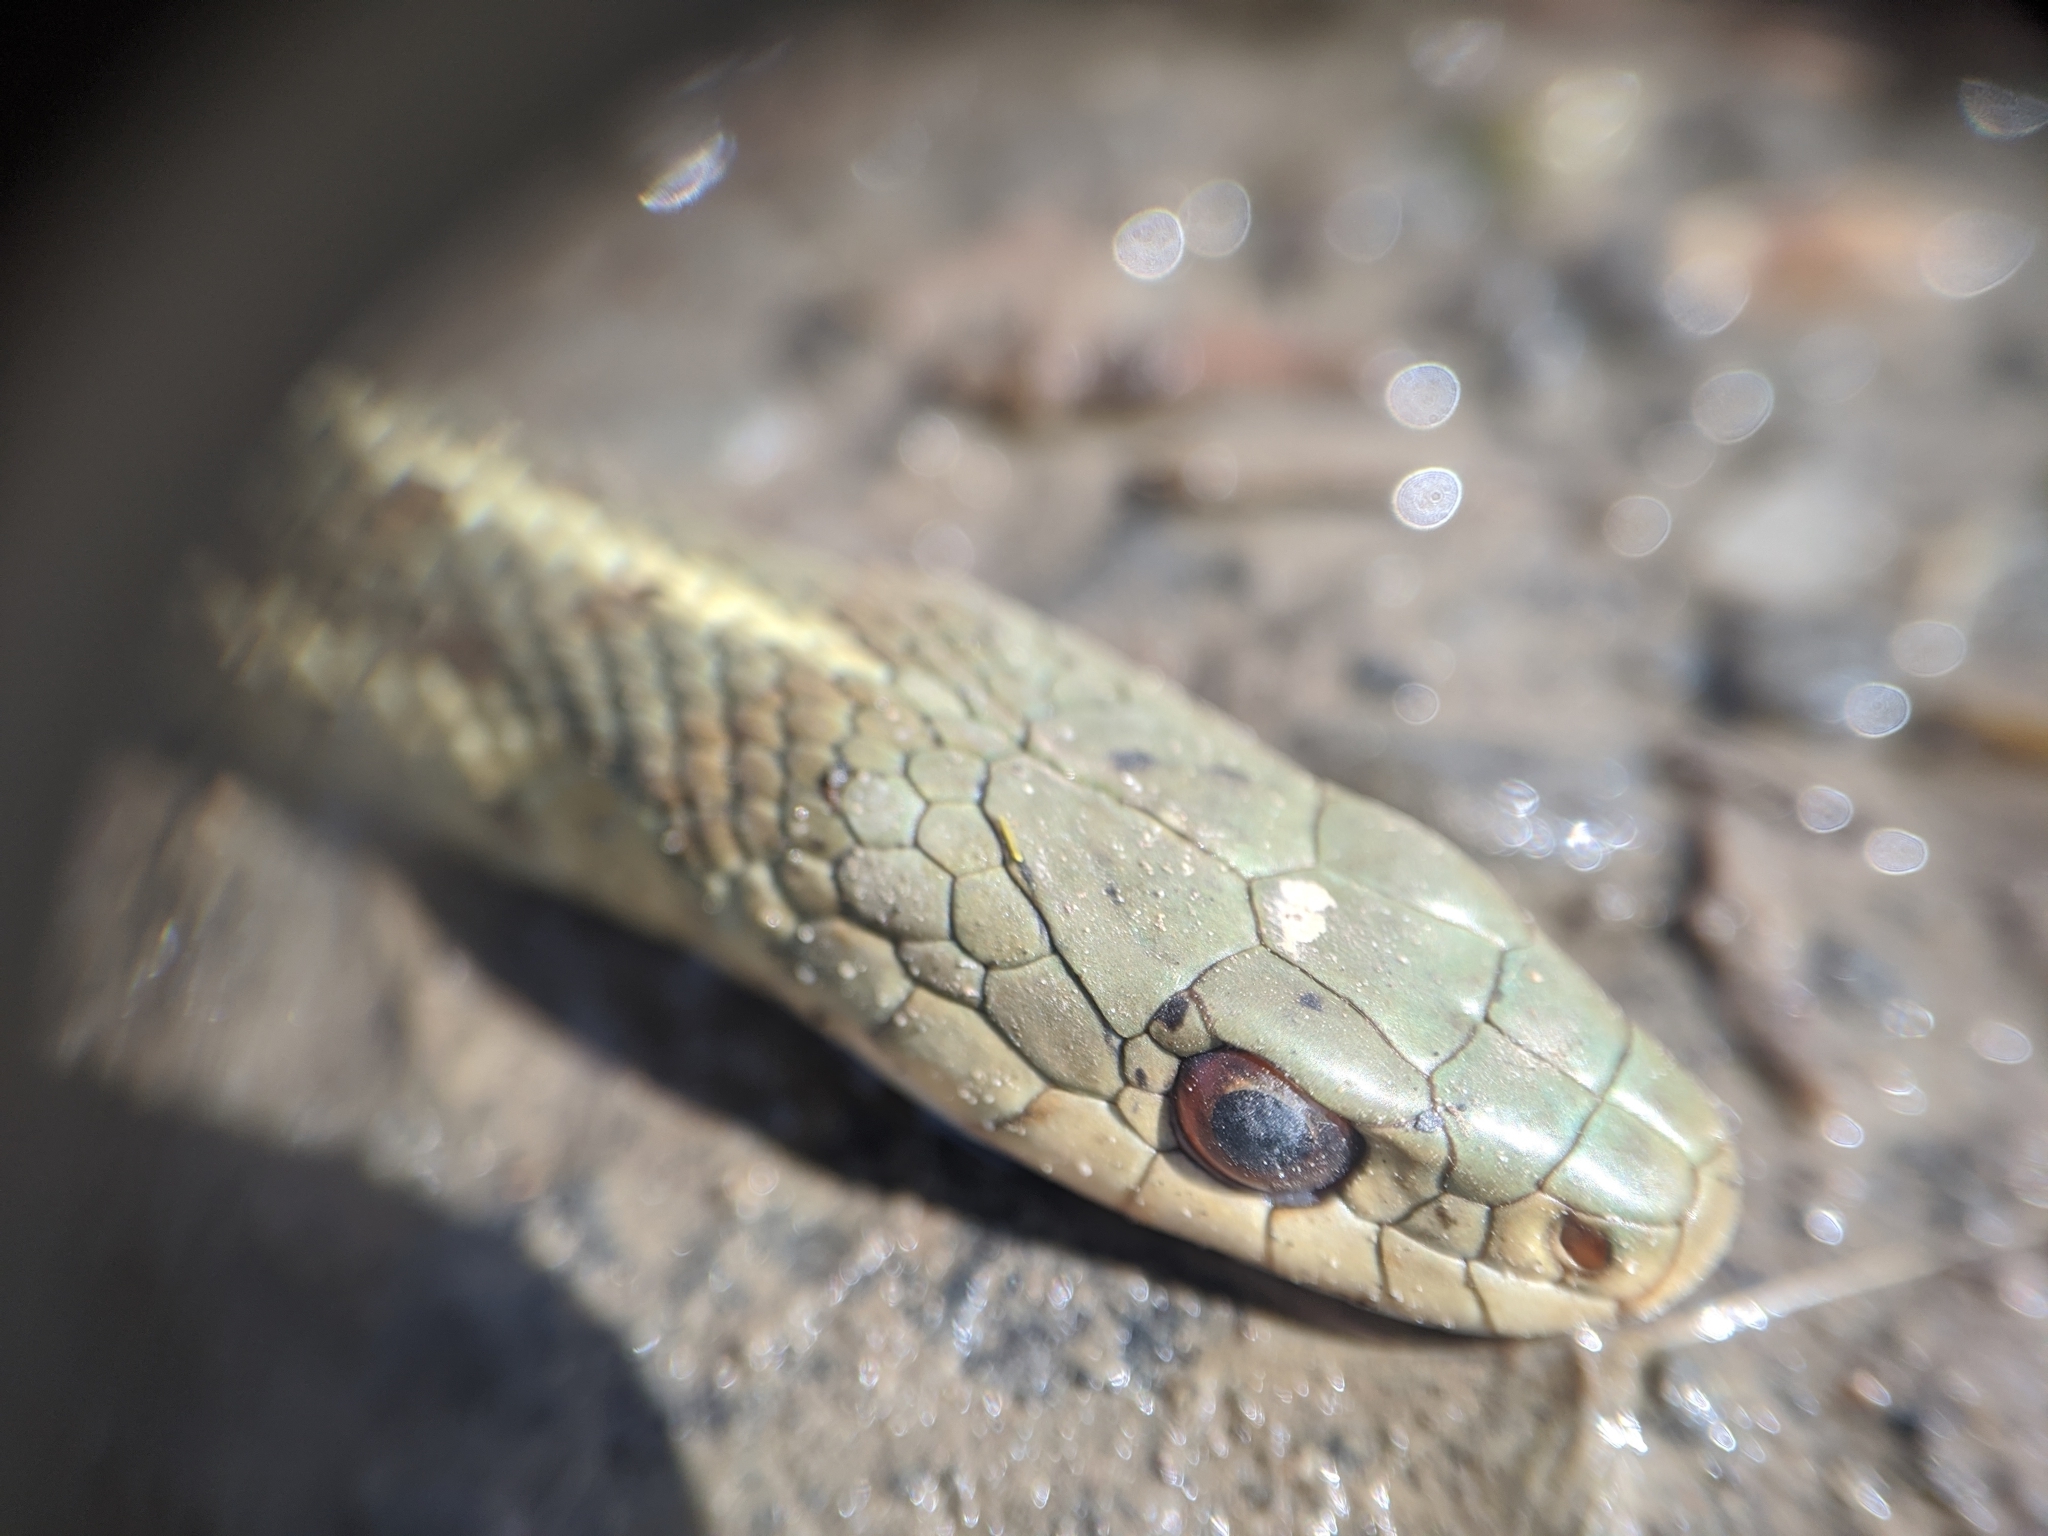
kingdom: Animalia
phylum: Chordata
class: Squamata
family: Colubridae
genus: Thamnophis
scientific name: Thamnophis sirtalis
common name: Common garter snake
